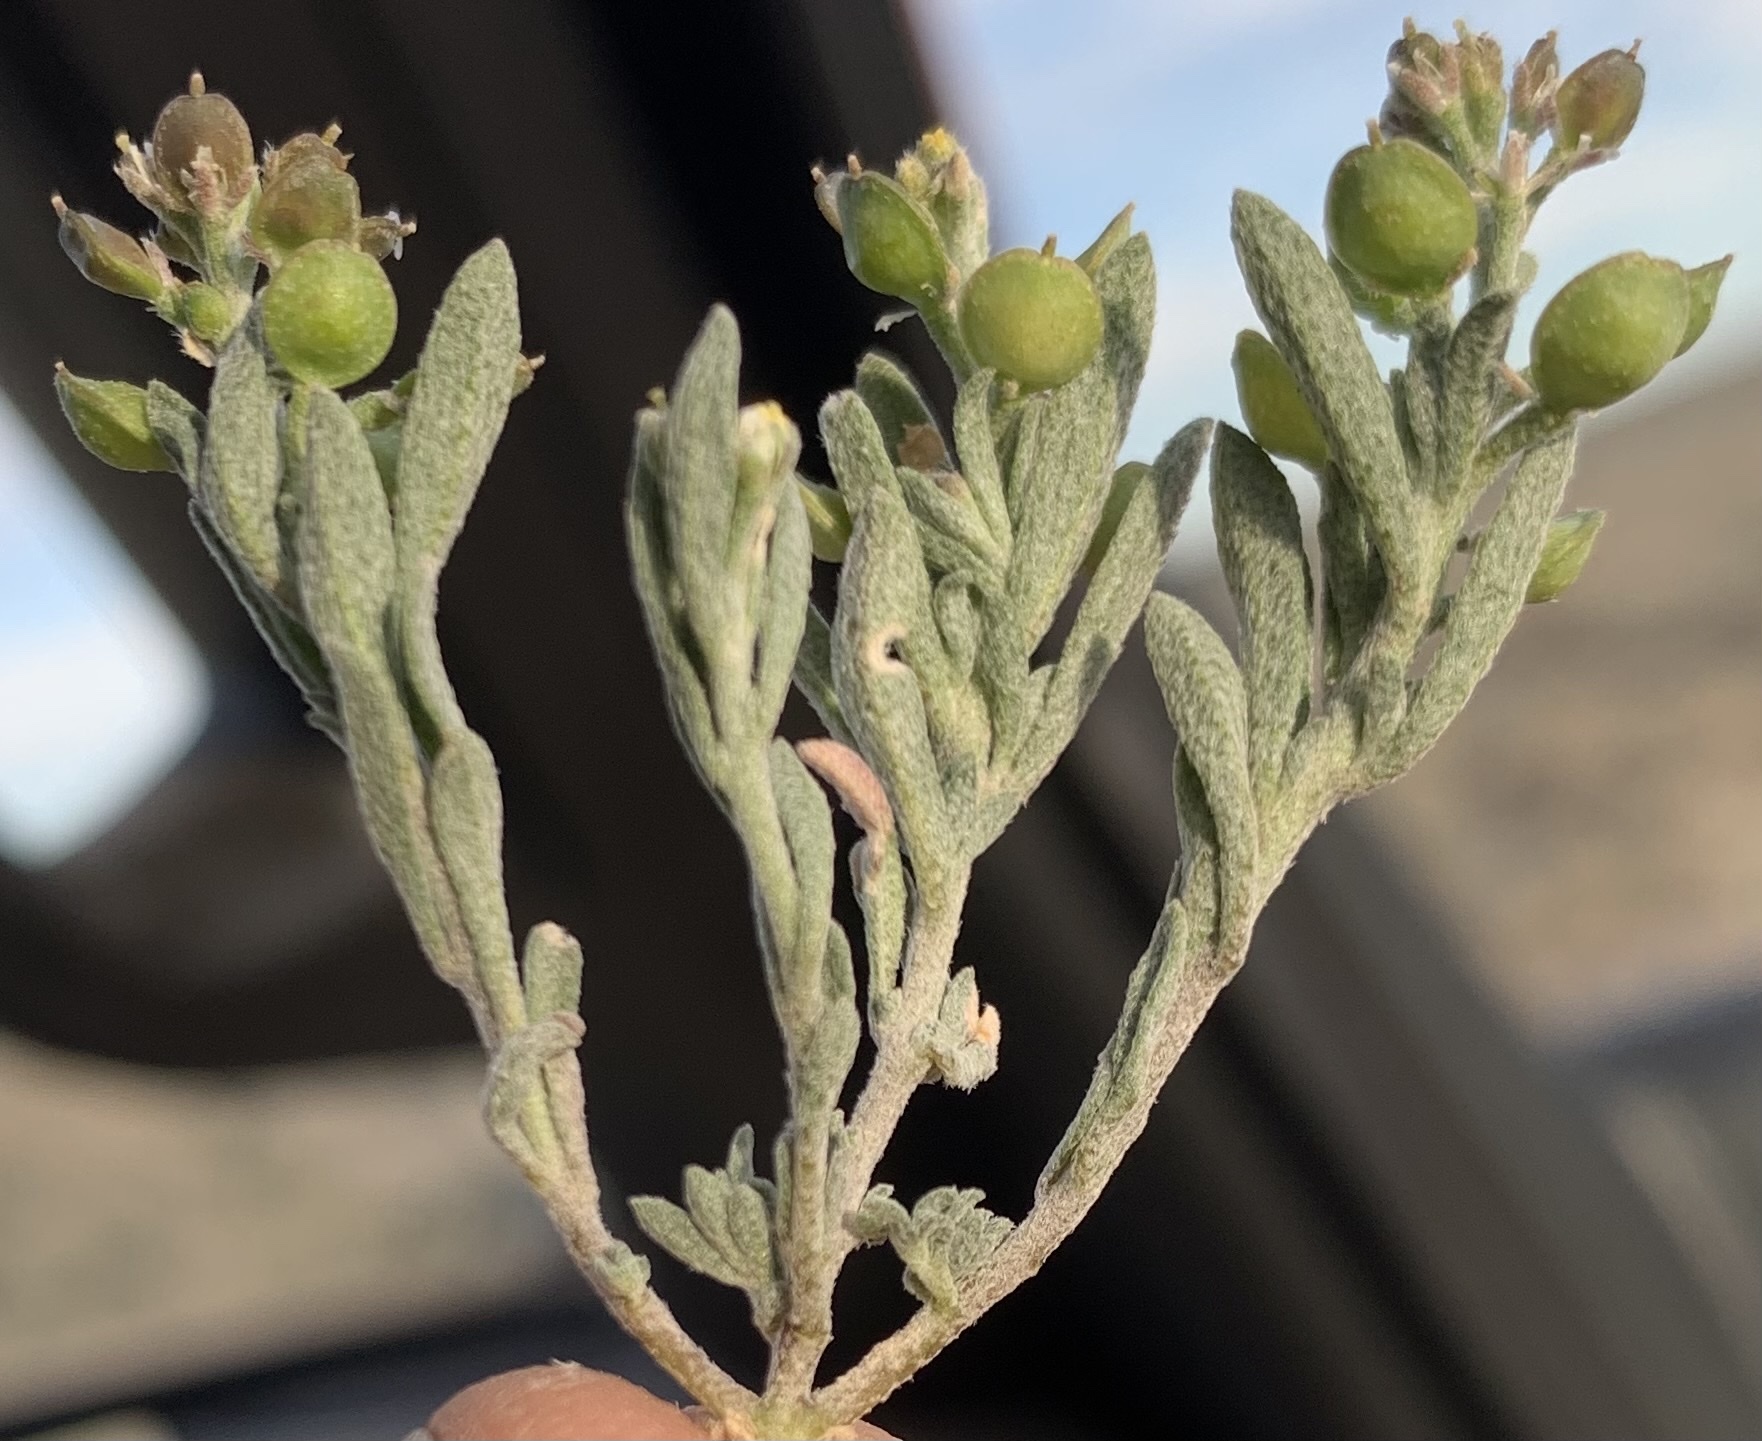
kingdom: Plantae
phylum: Tracheophyta
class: Magnoliopsida
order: Brassicales
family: Brassicaceae
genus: Alyssum
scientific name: Alyssum turkestanicum
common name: Desert alyssum
